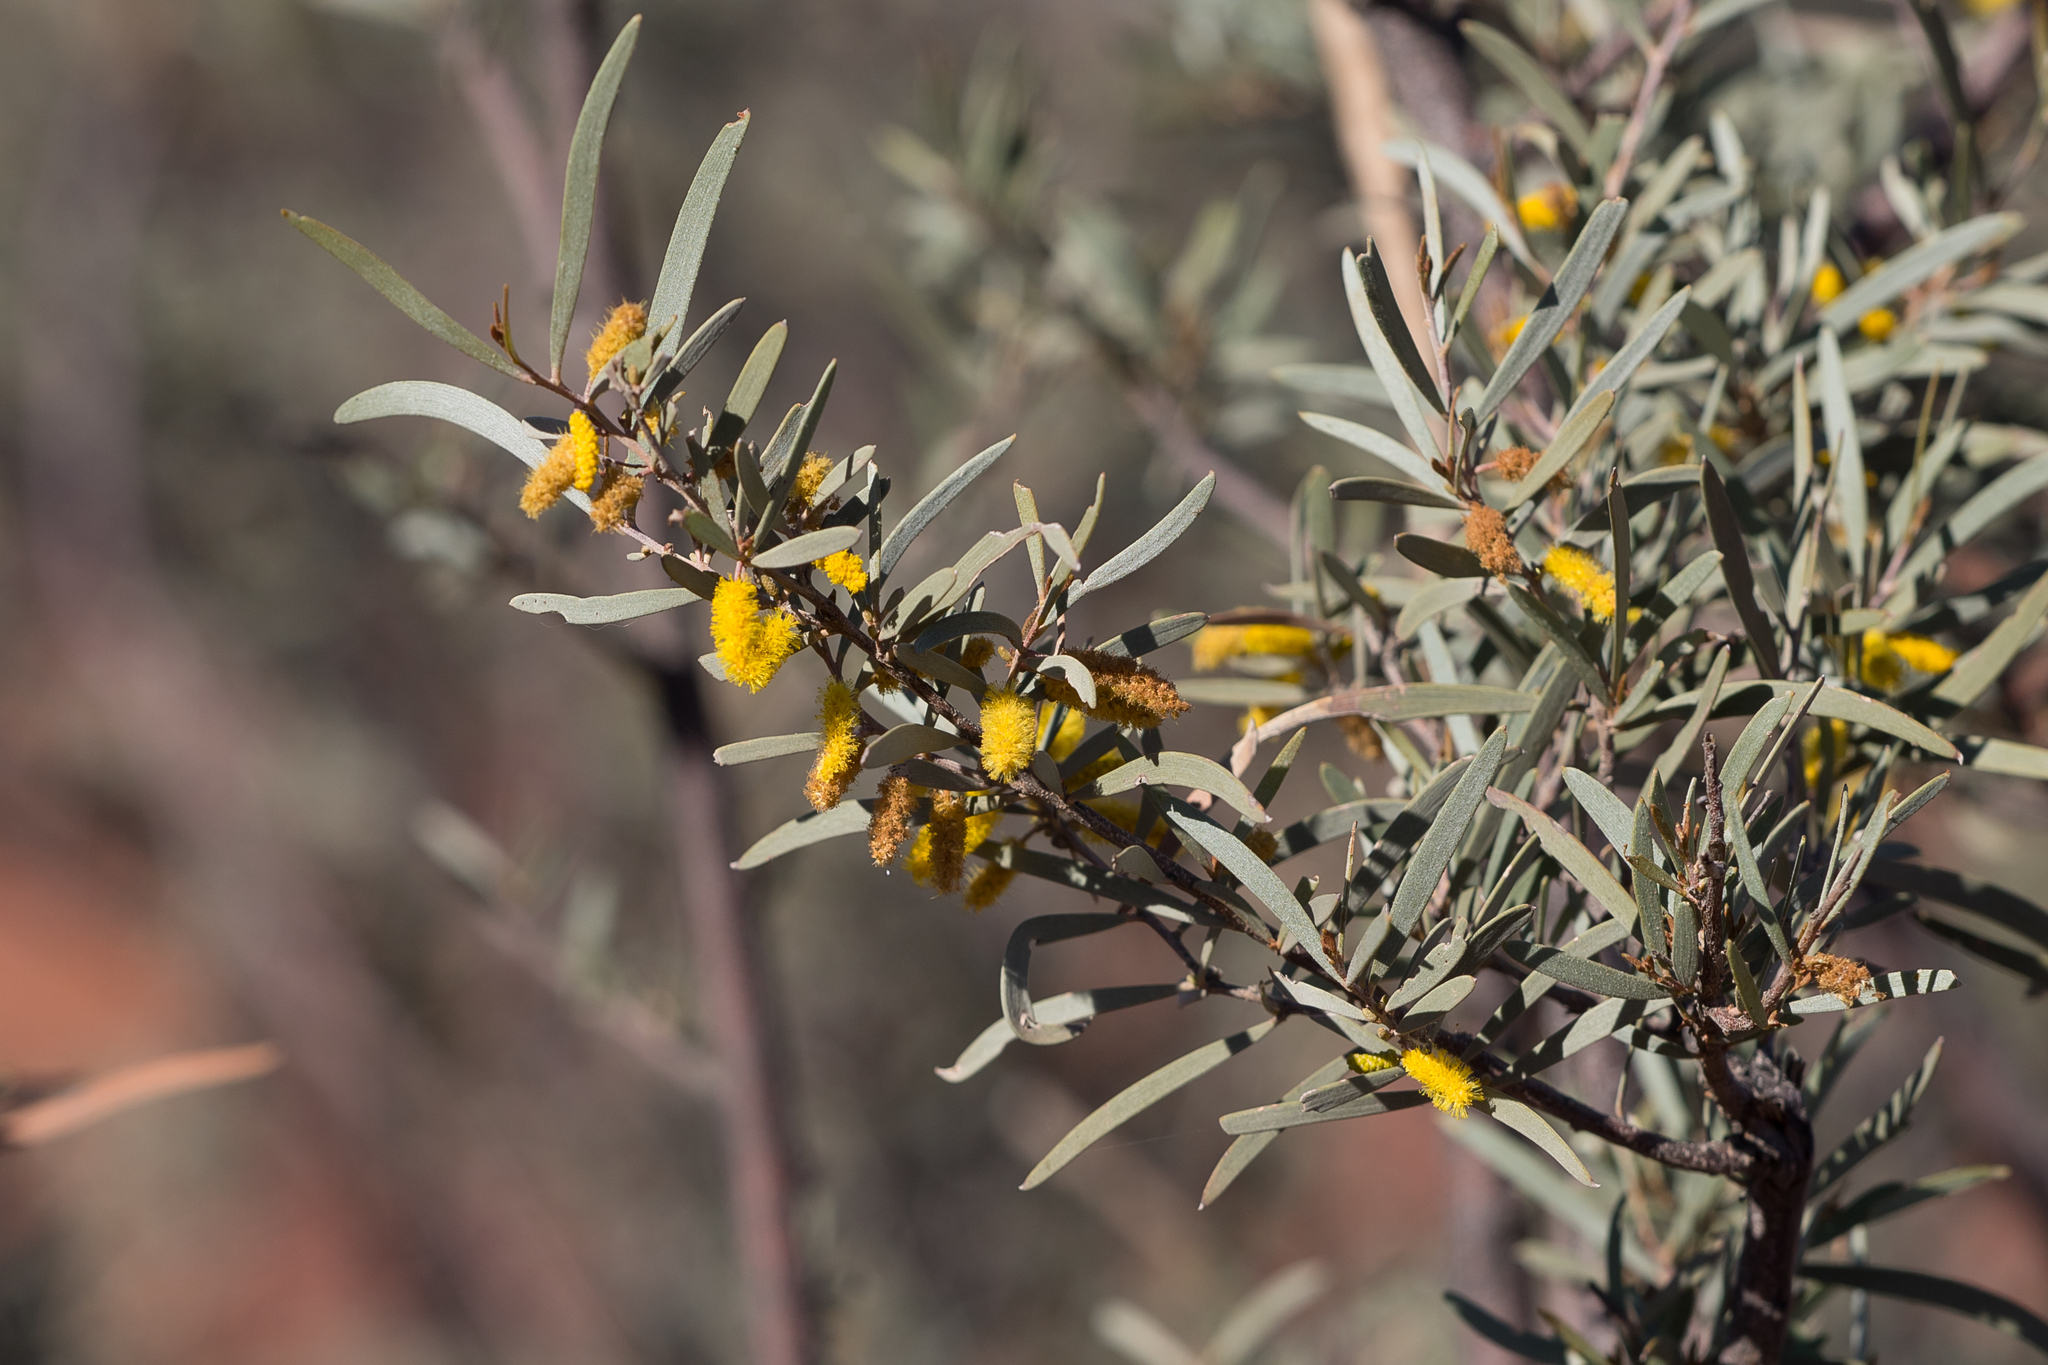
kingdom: Plantae
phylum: Tracheophyta
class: Magnoliopsida
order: Fabales
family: Fabaceae
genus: Acacia
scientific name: Acacia aneura
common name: Mulga
